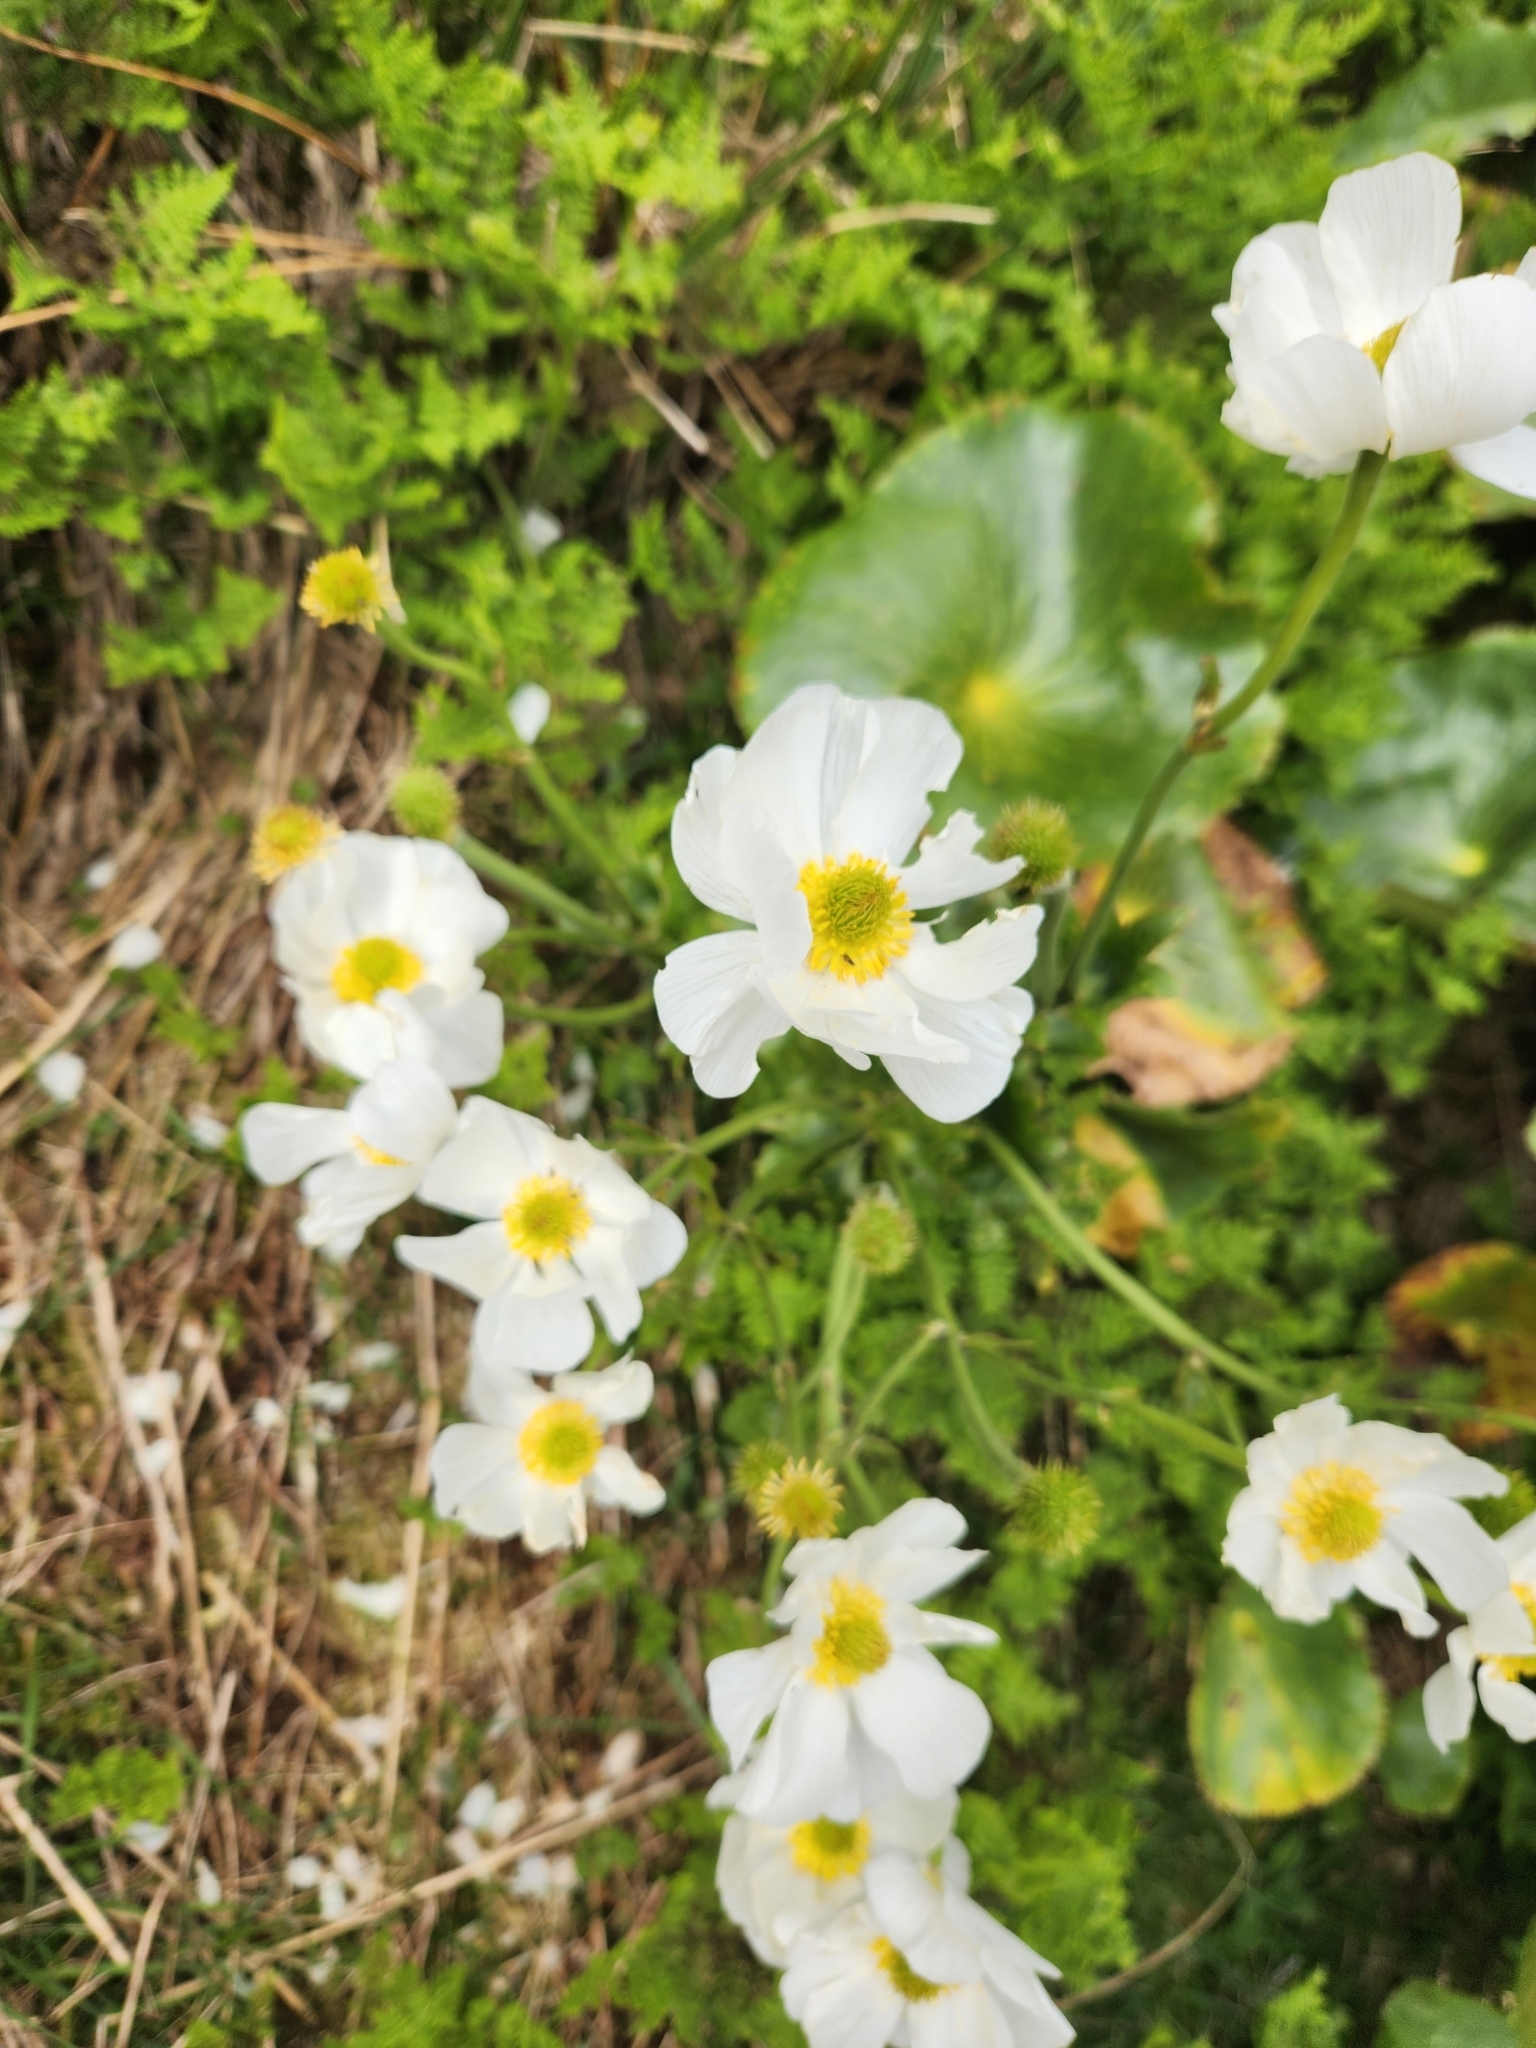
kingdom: Plantae
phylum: Tracheophyta
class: Magnoliopsida
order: Ranunculales
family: Ranunculaceae
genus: Ranunculus
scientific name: Ranunculus lyallii
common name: Mountain-lily
